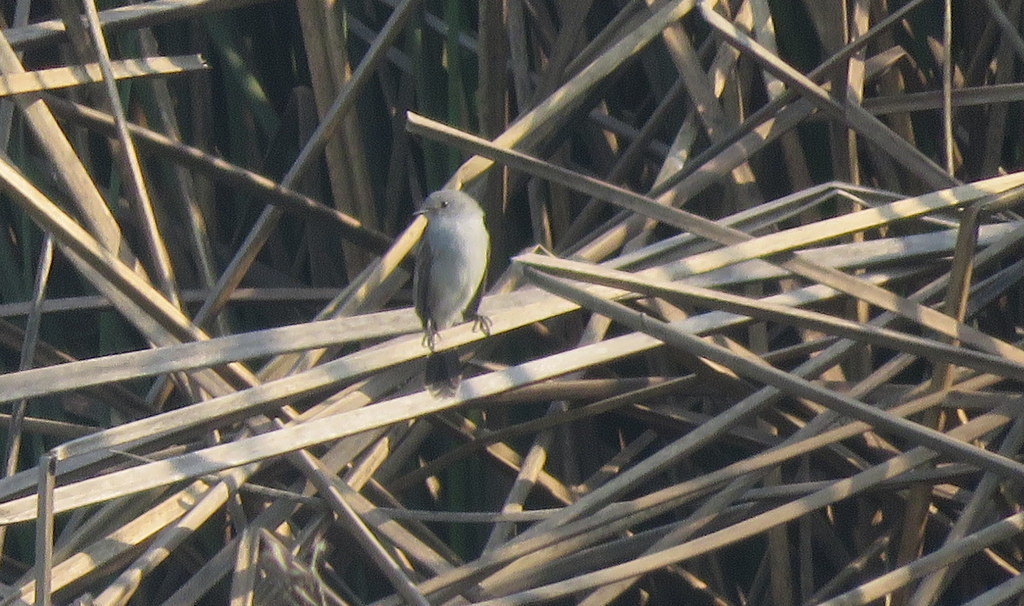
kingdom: Animalia
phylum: Chordata
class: Aves
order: Passeriformes
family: Tyrannidae
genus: Serpophaga
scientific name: Serpophaga nigricans
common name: Sooty tyrannulet
